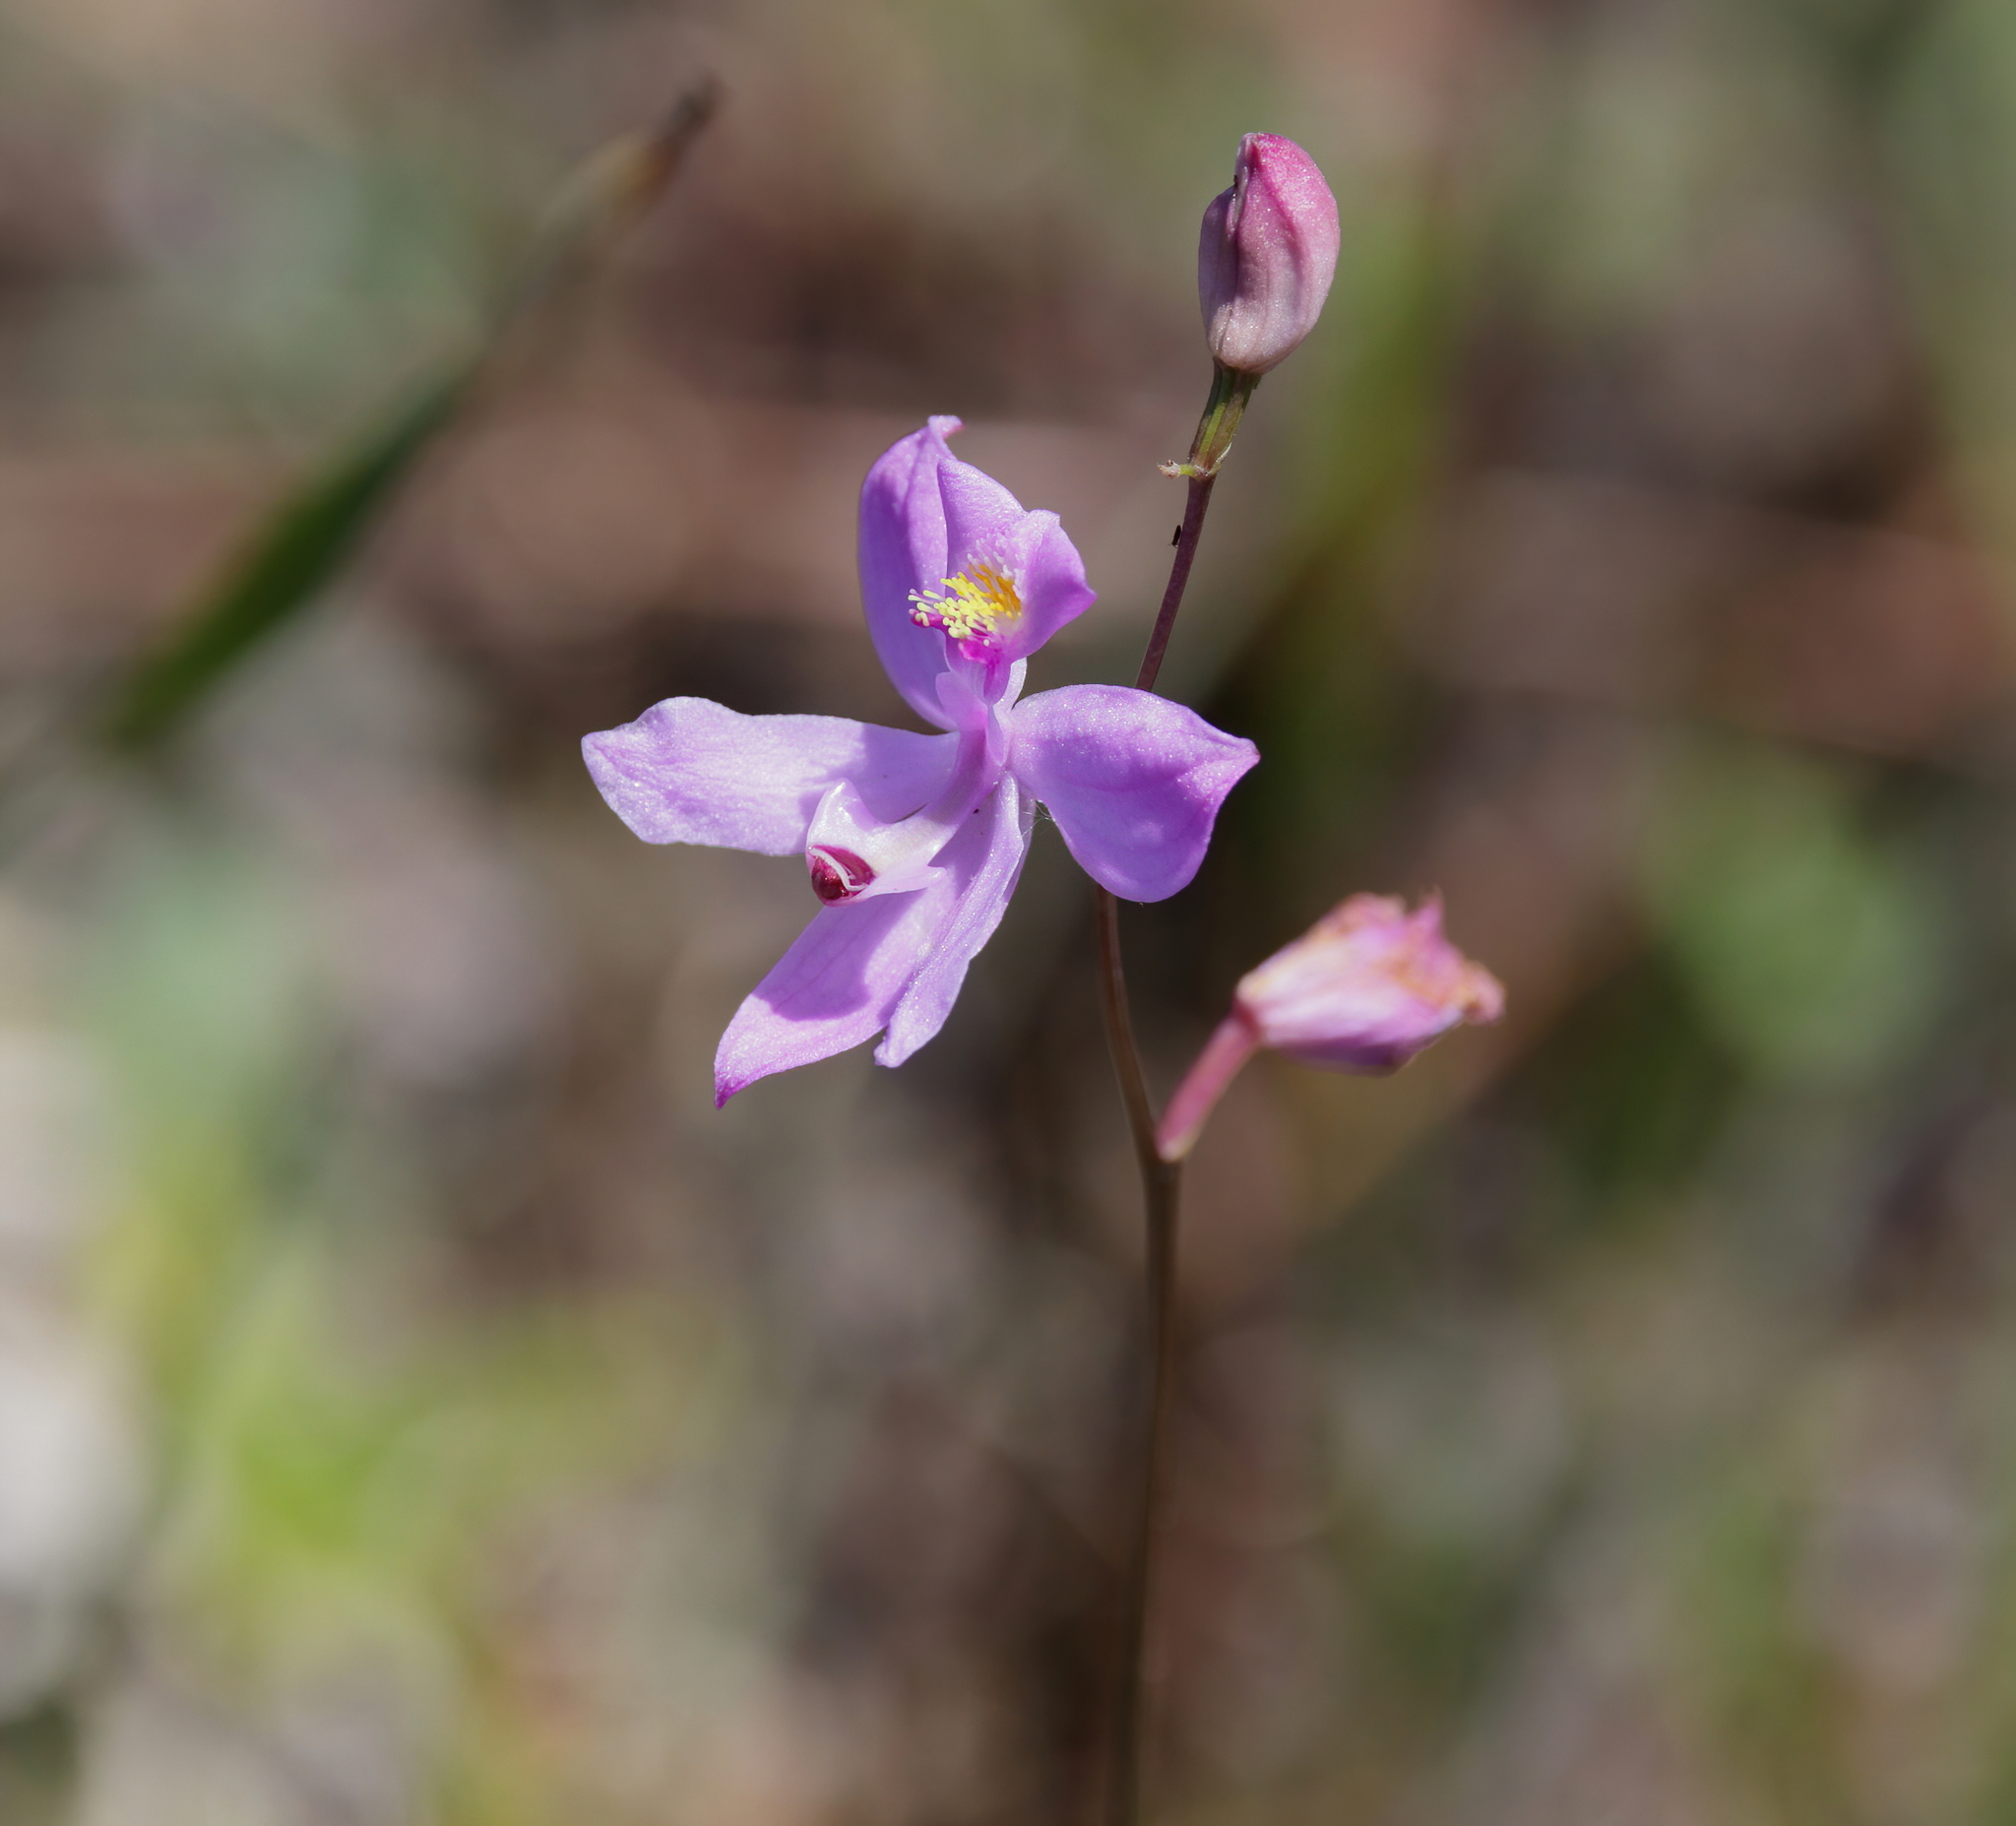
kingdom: Plantae
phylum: Tracheophyta
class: Liliopsida
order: Asparagales
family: Orchidaceae
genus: Calopogon
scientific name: Calopogon multiflorus
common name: Many-flowered grass-pink orchid
